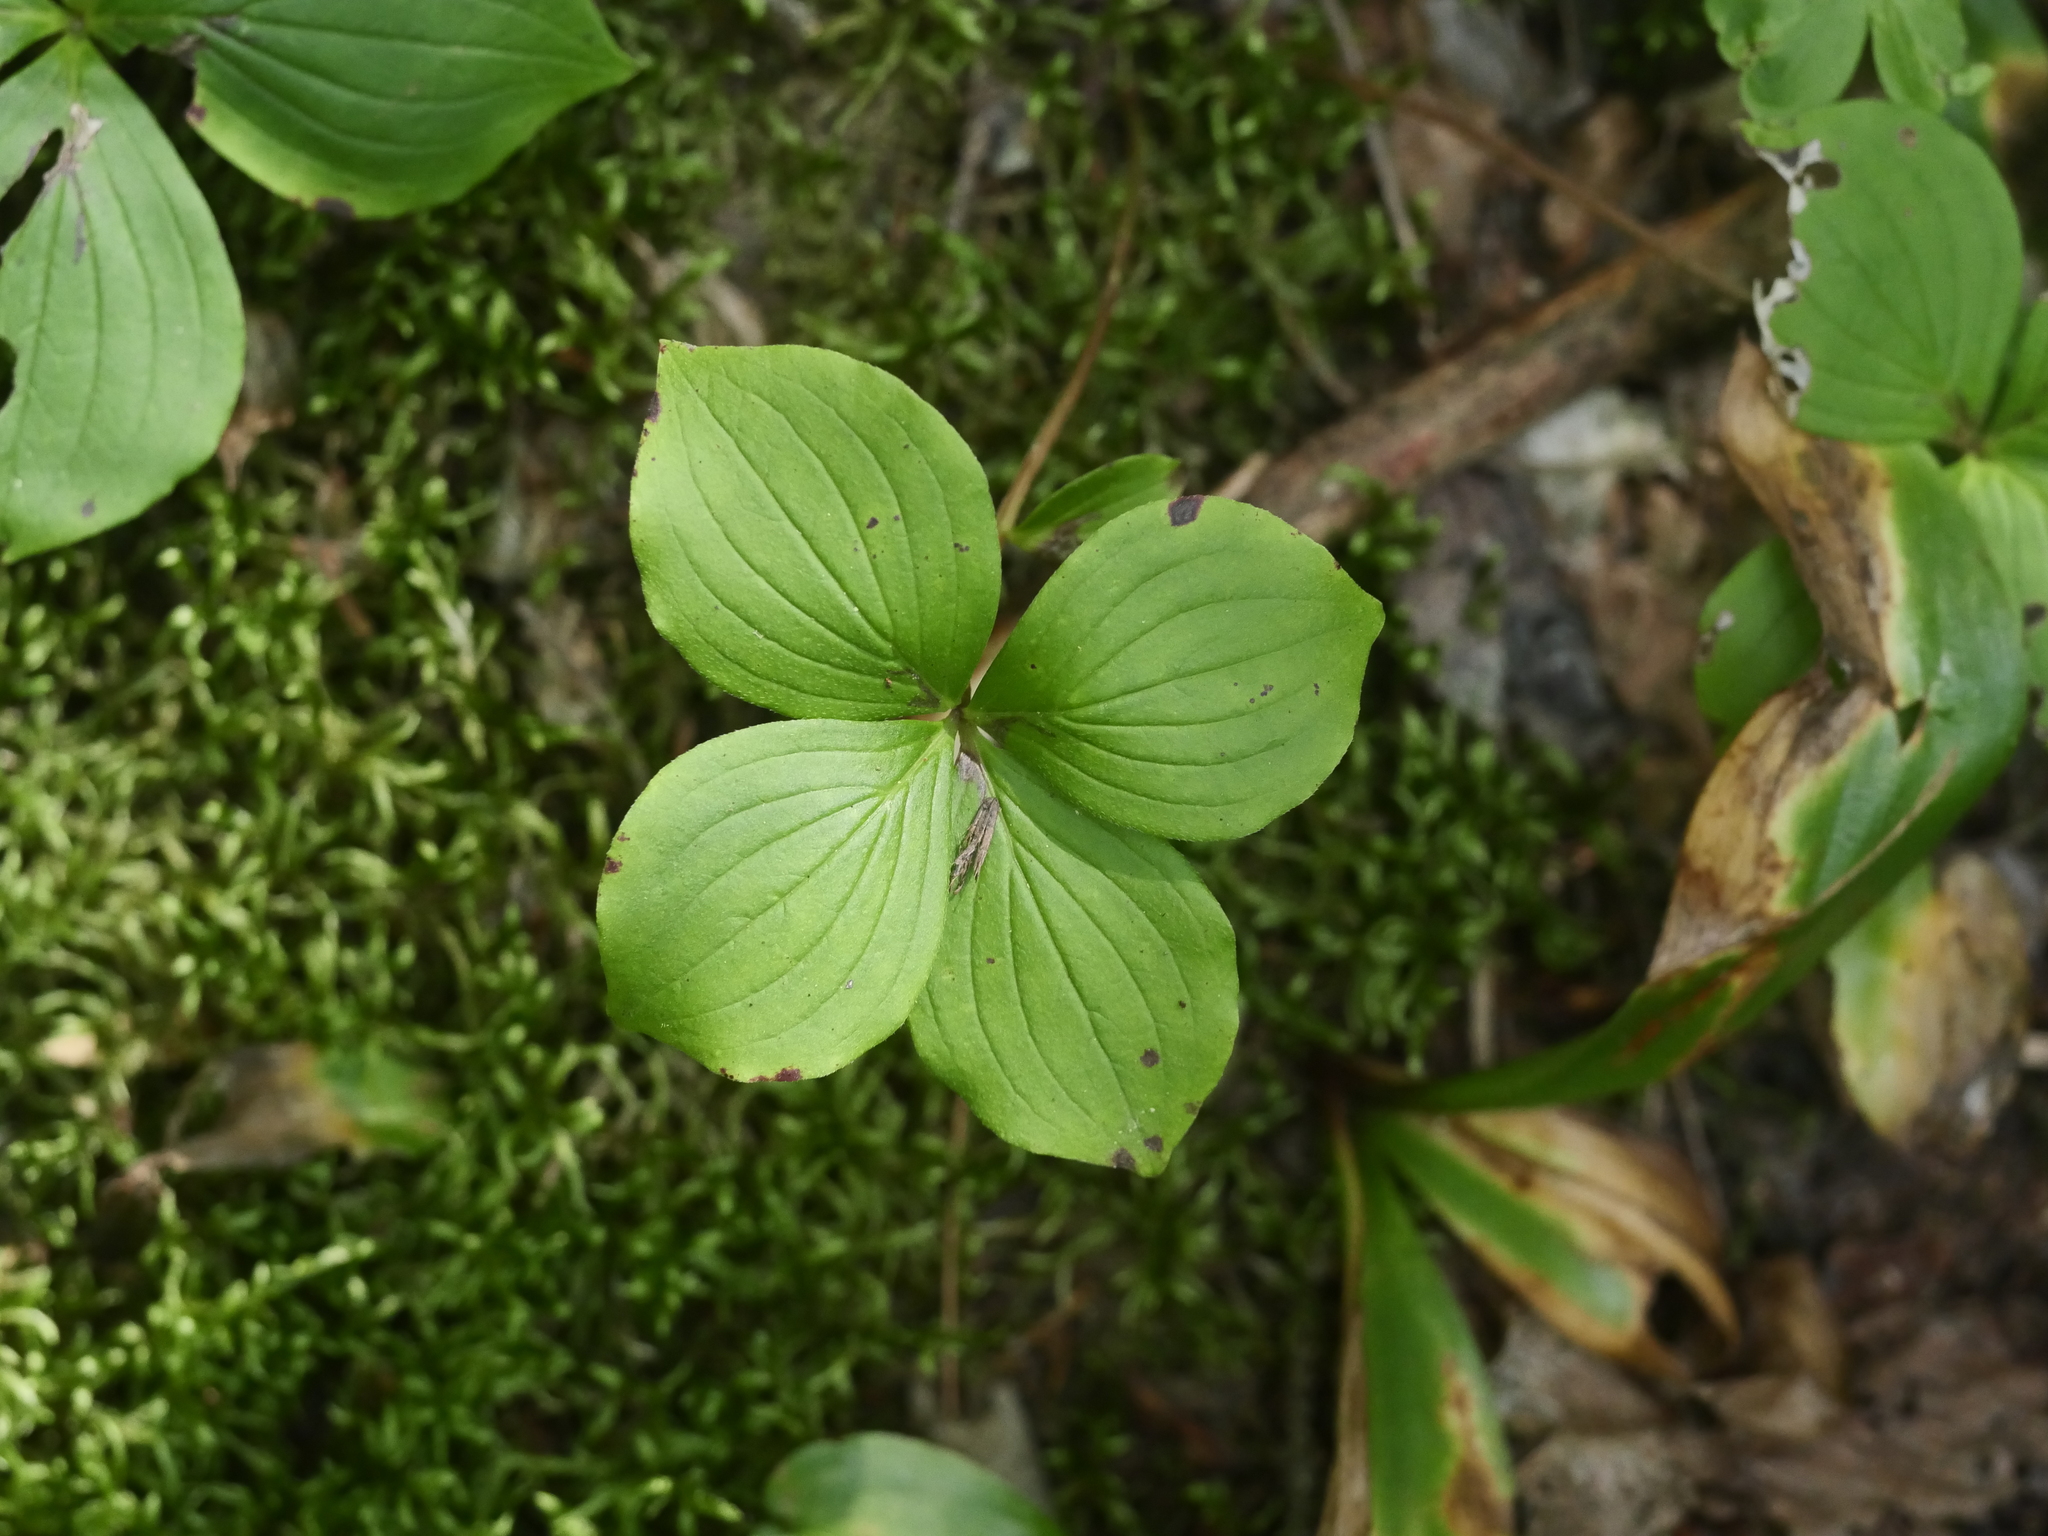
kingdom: Plantae
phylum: Tracheophyta
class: Magnoliopsida
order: Cornales
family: Cornaceae
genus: Cornus
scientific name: Cornus canadensis
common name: Creeping dogwood
